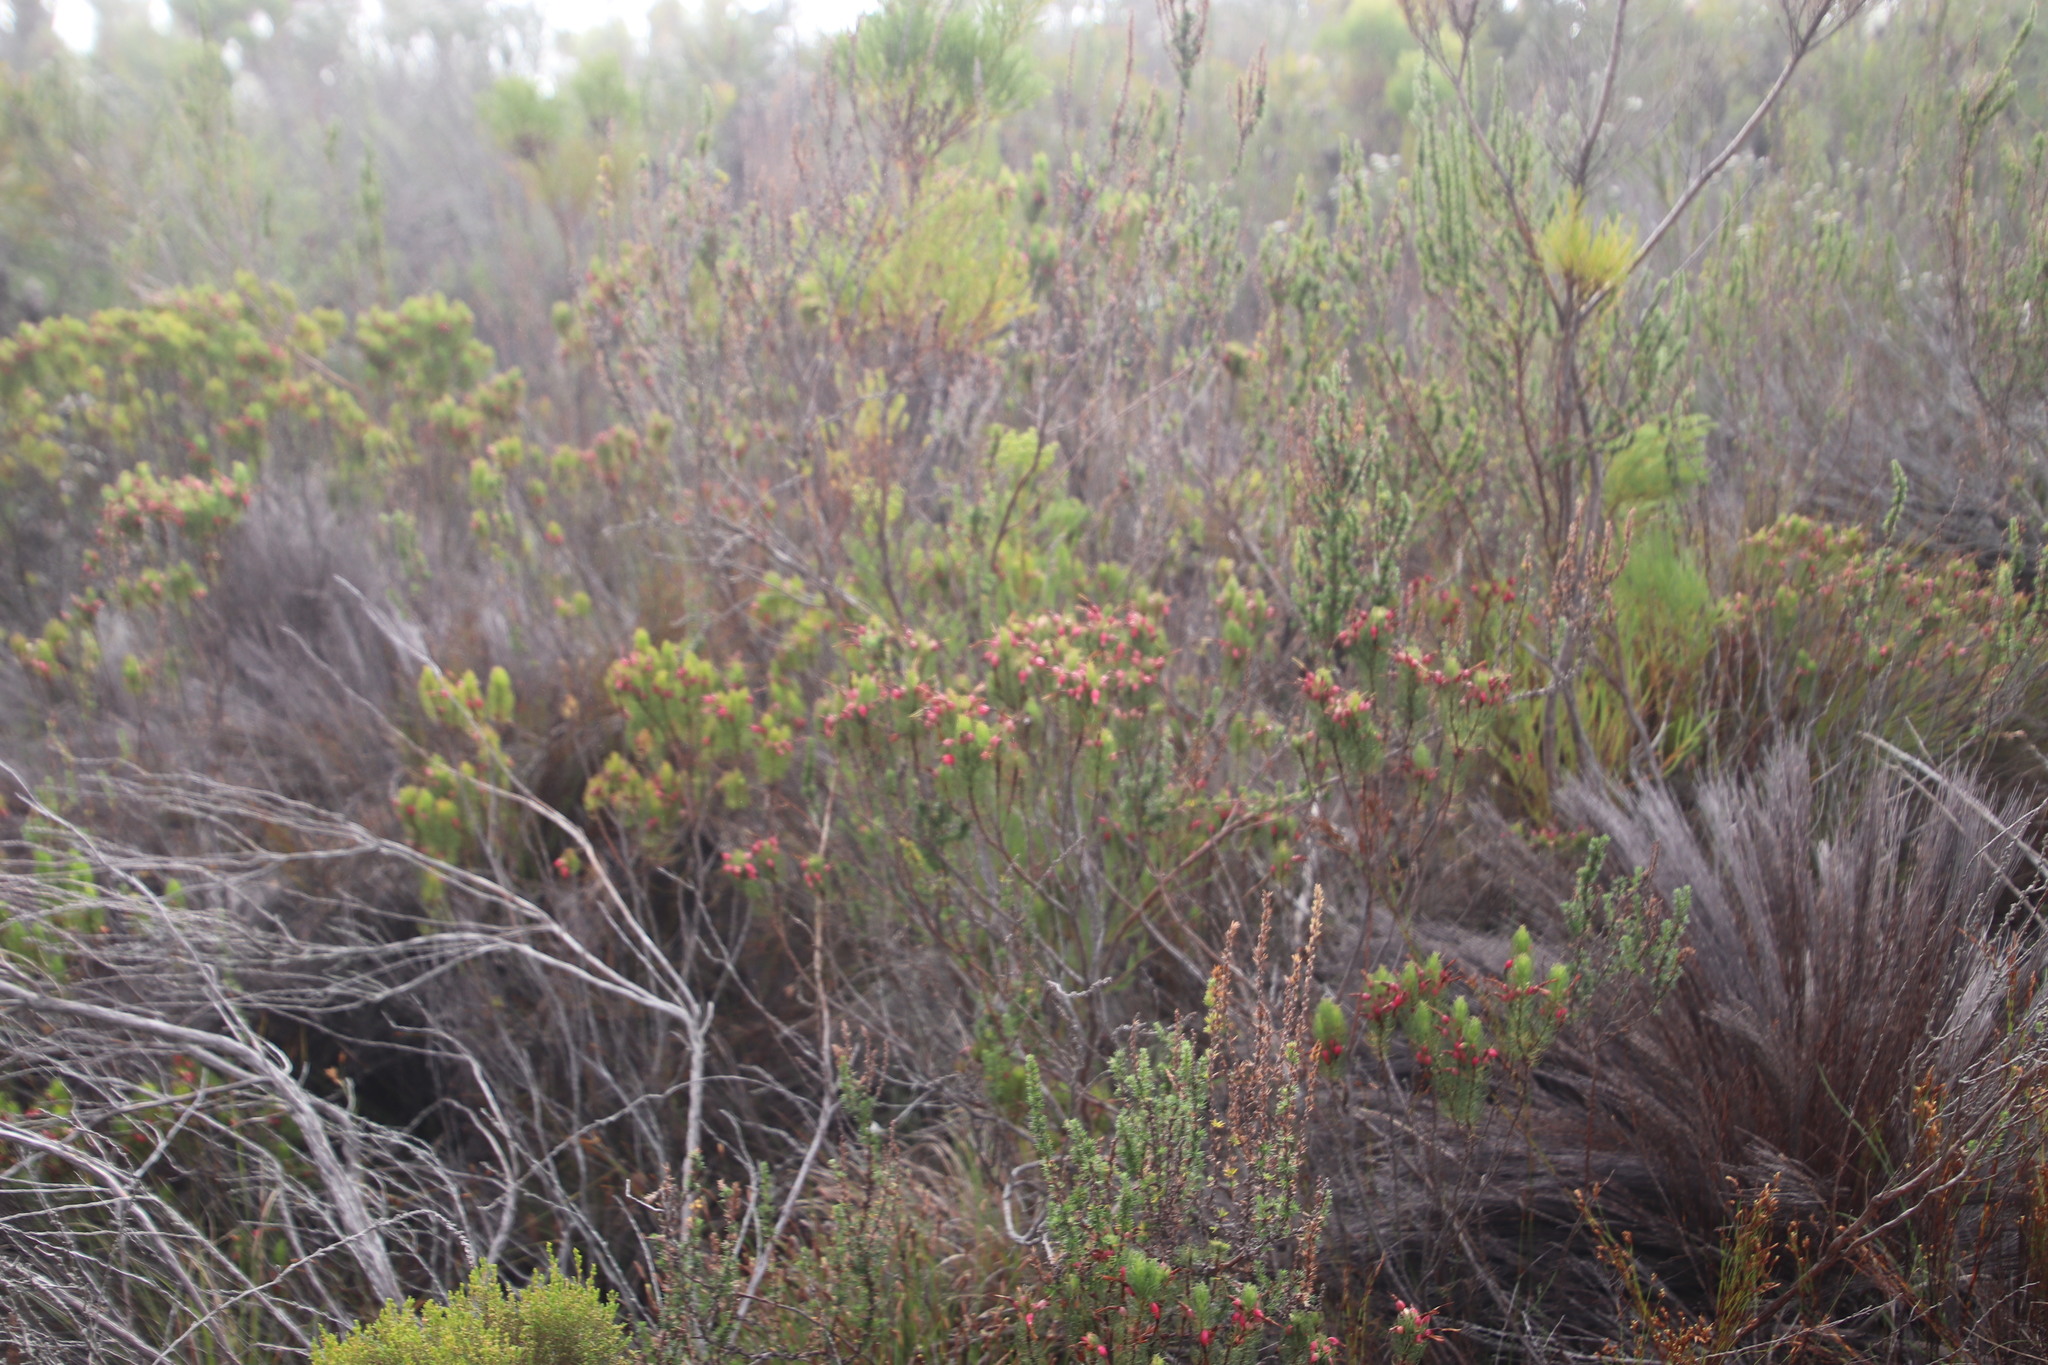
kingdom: Plantae
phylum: Tracheophyta
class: Magnoliopsida
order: Ericales
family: Ericaceae
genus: Erica
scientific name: Erica plukenetii
